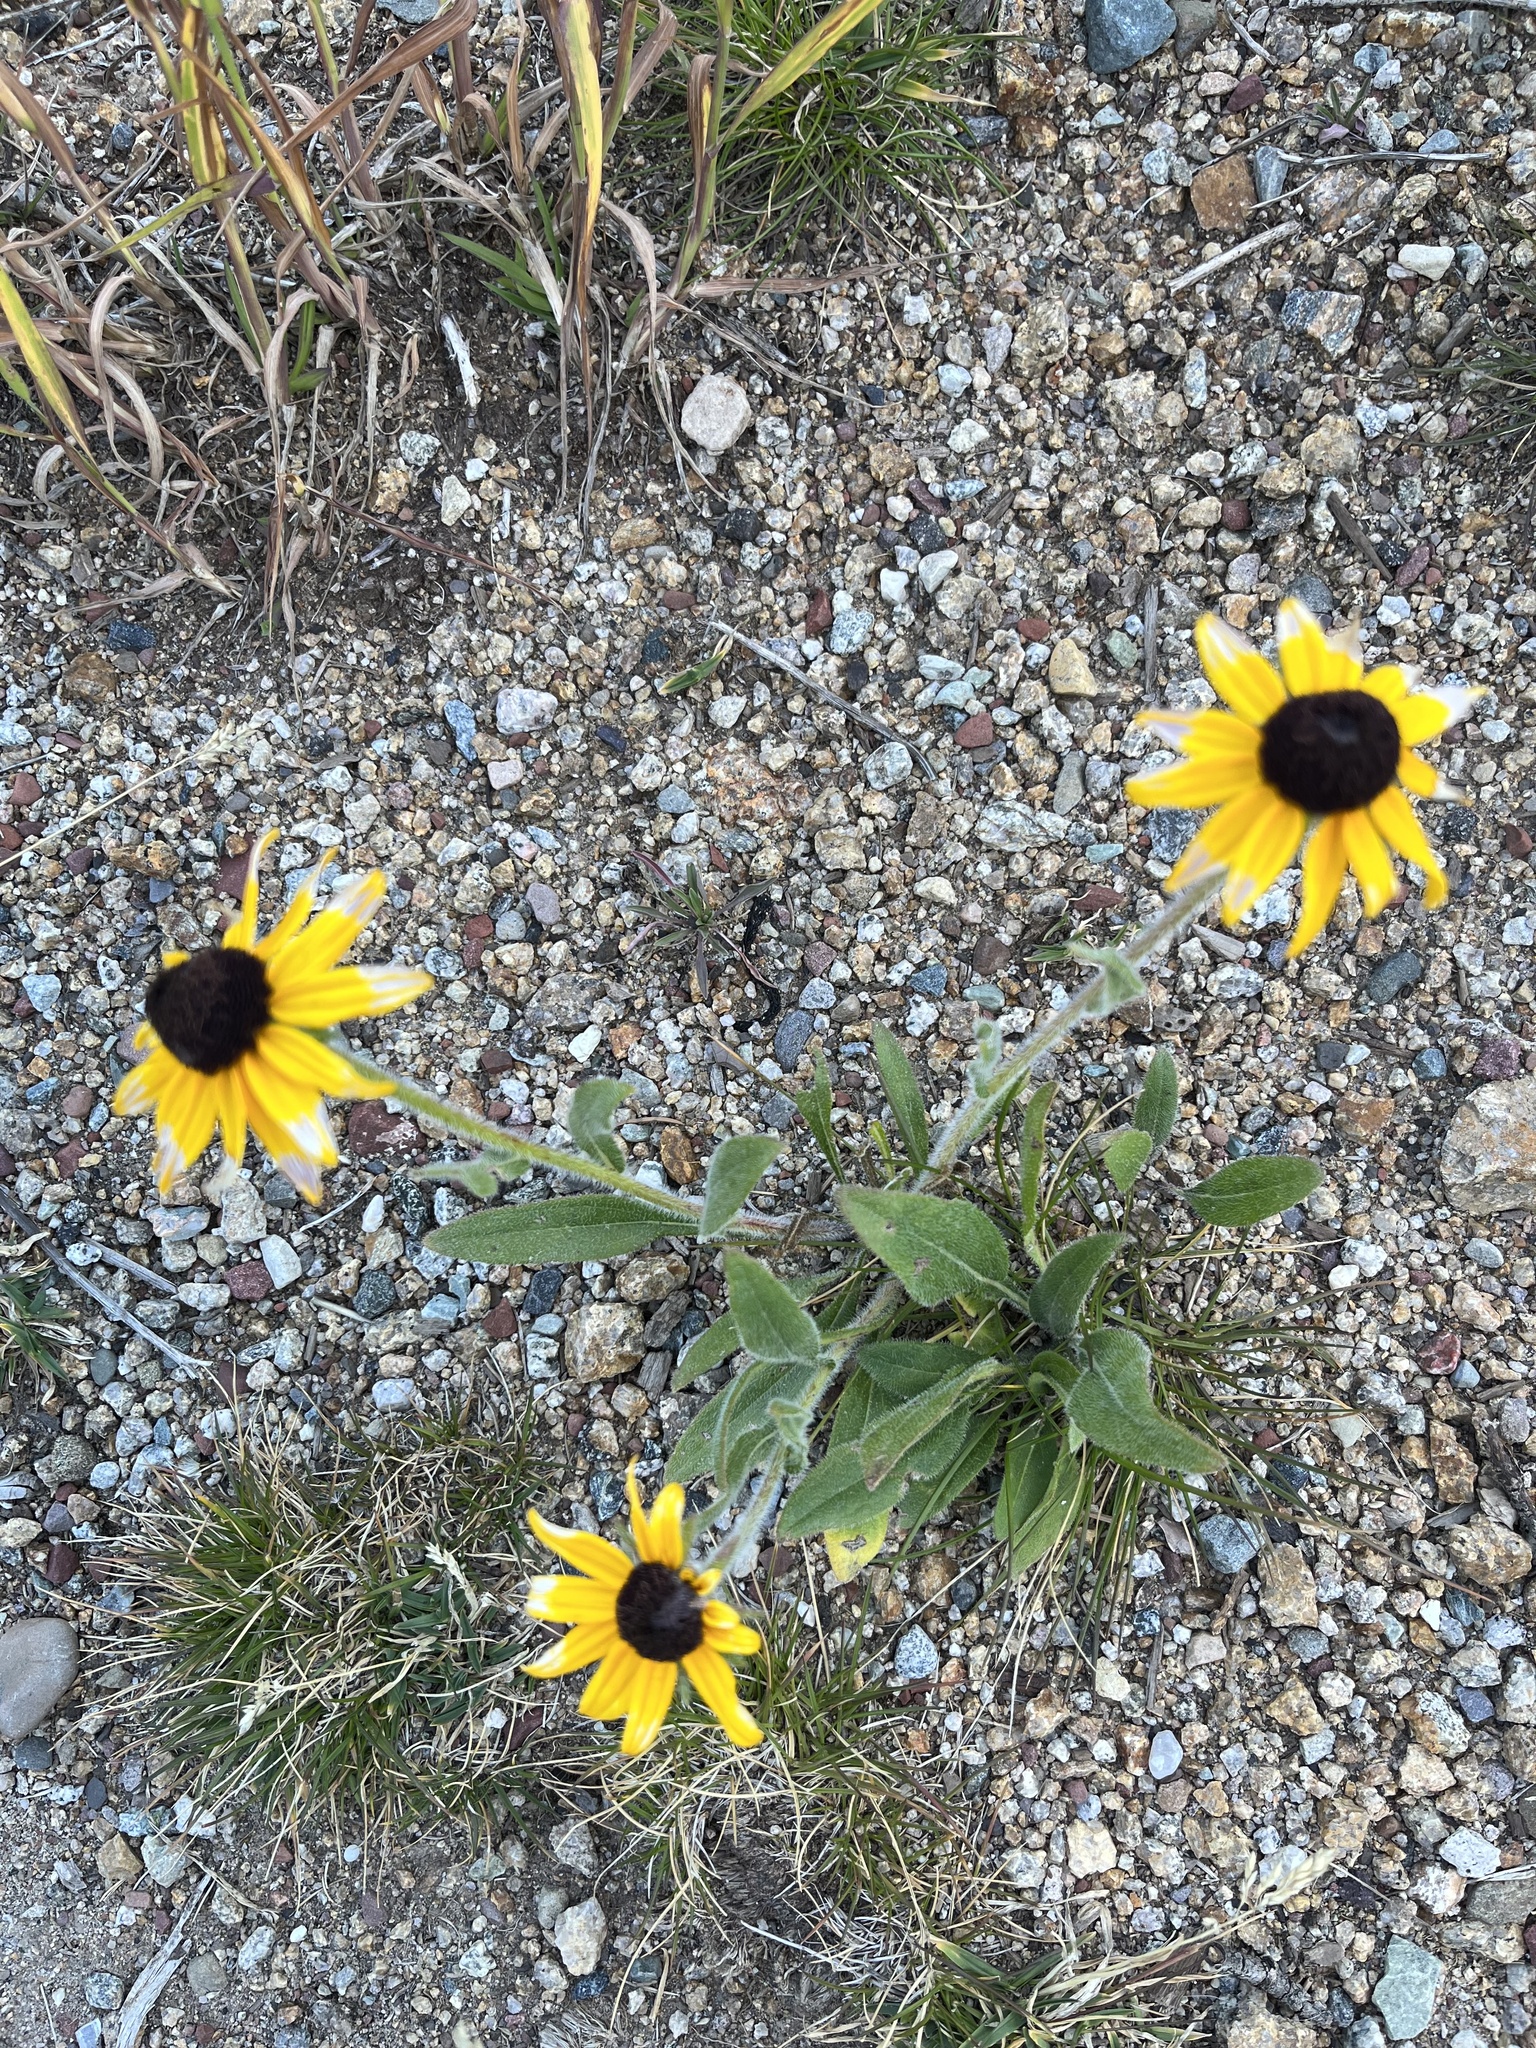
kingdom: Plantae
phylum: Tracheophyta
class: Magnoliopsida
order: Asterales
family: Asteraceae
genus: Rudbeckia
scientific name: Rudbeckia hirta
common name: Black-eyed-susan
